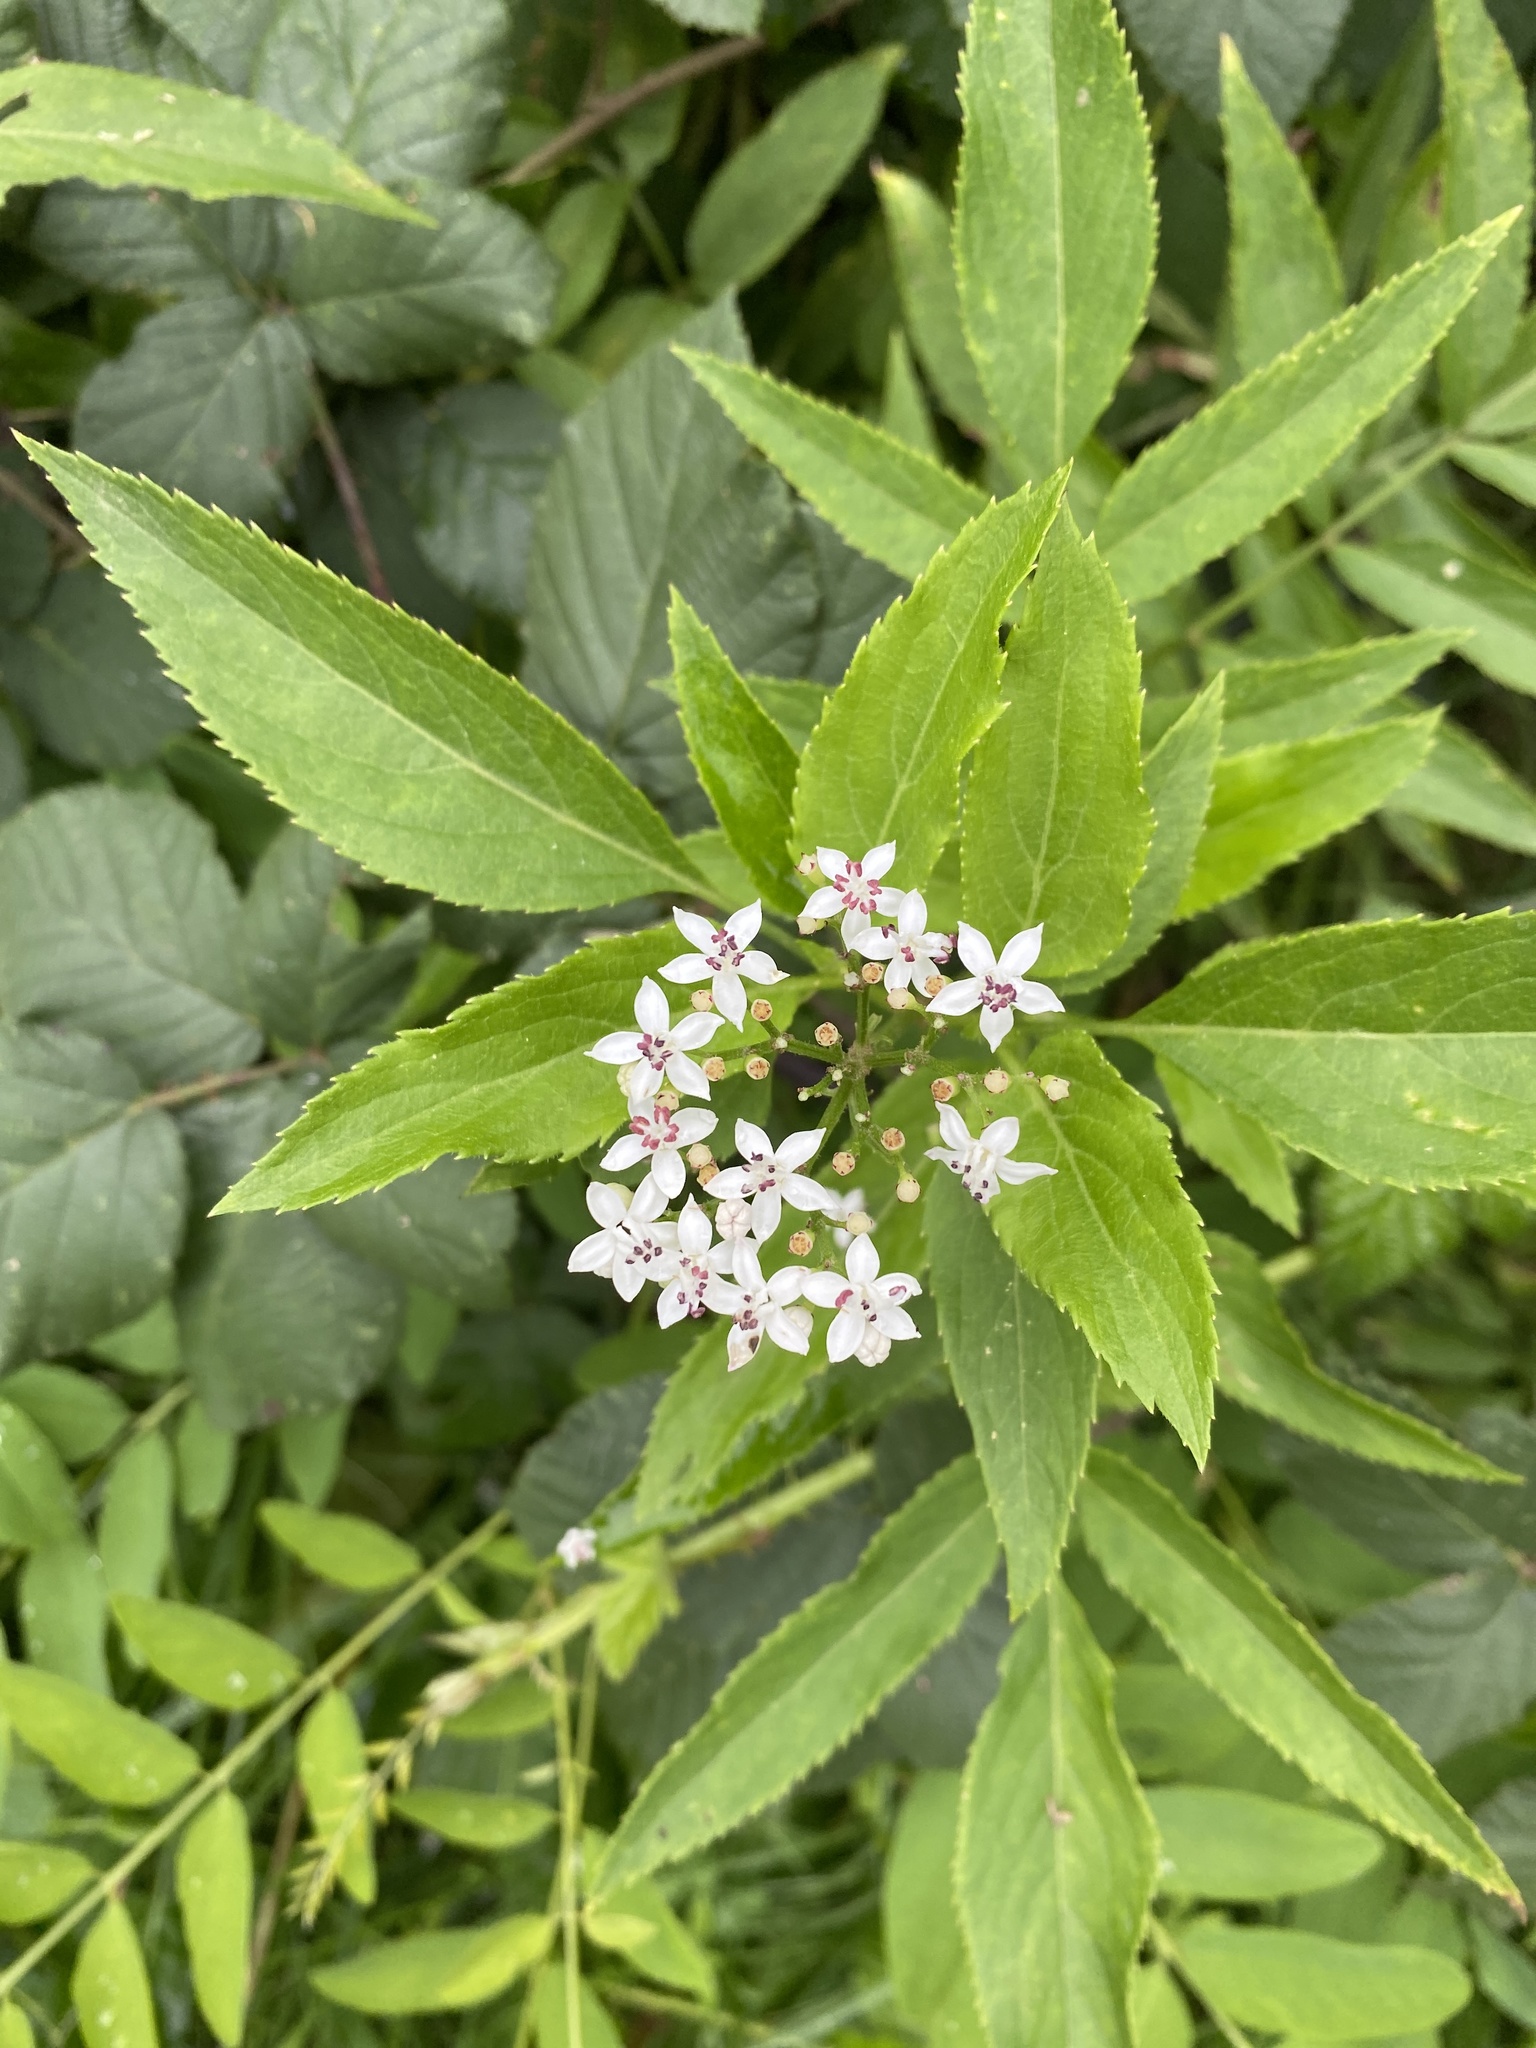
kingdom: Plantae
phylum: Tracheophyta
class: Magnoliopsida
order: Dipsacales
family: Viburnaceae
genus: Sambucus
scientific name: Sambucus ebulus
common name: Dwarf elder
